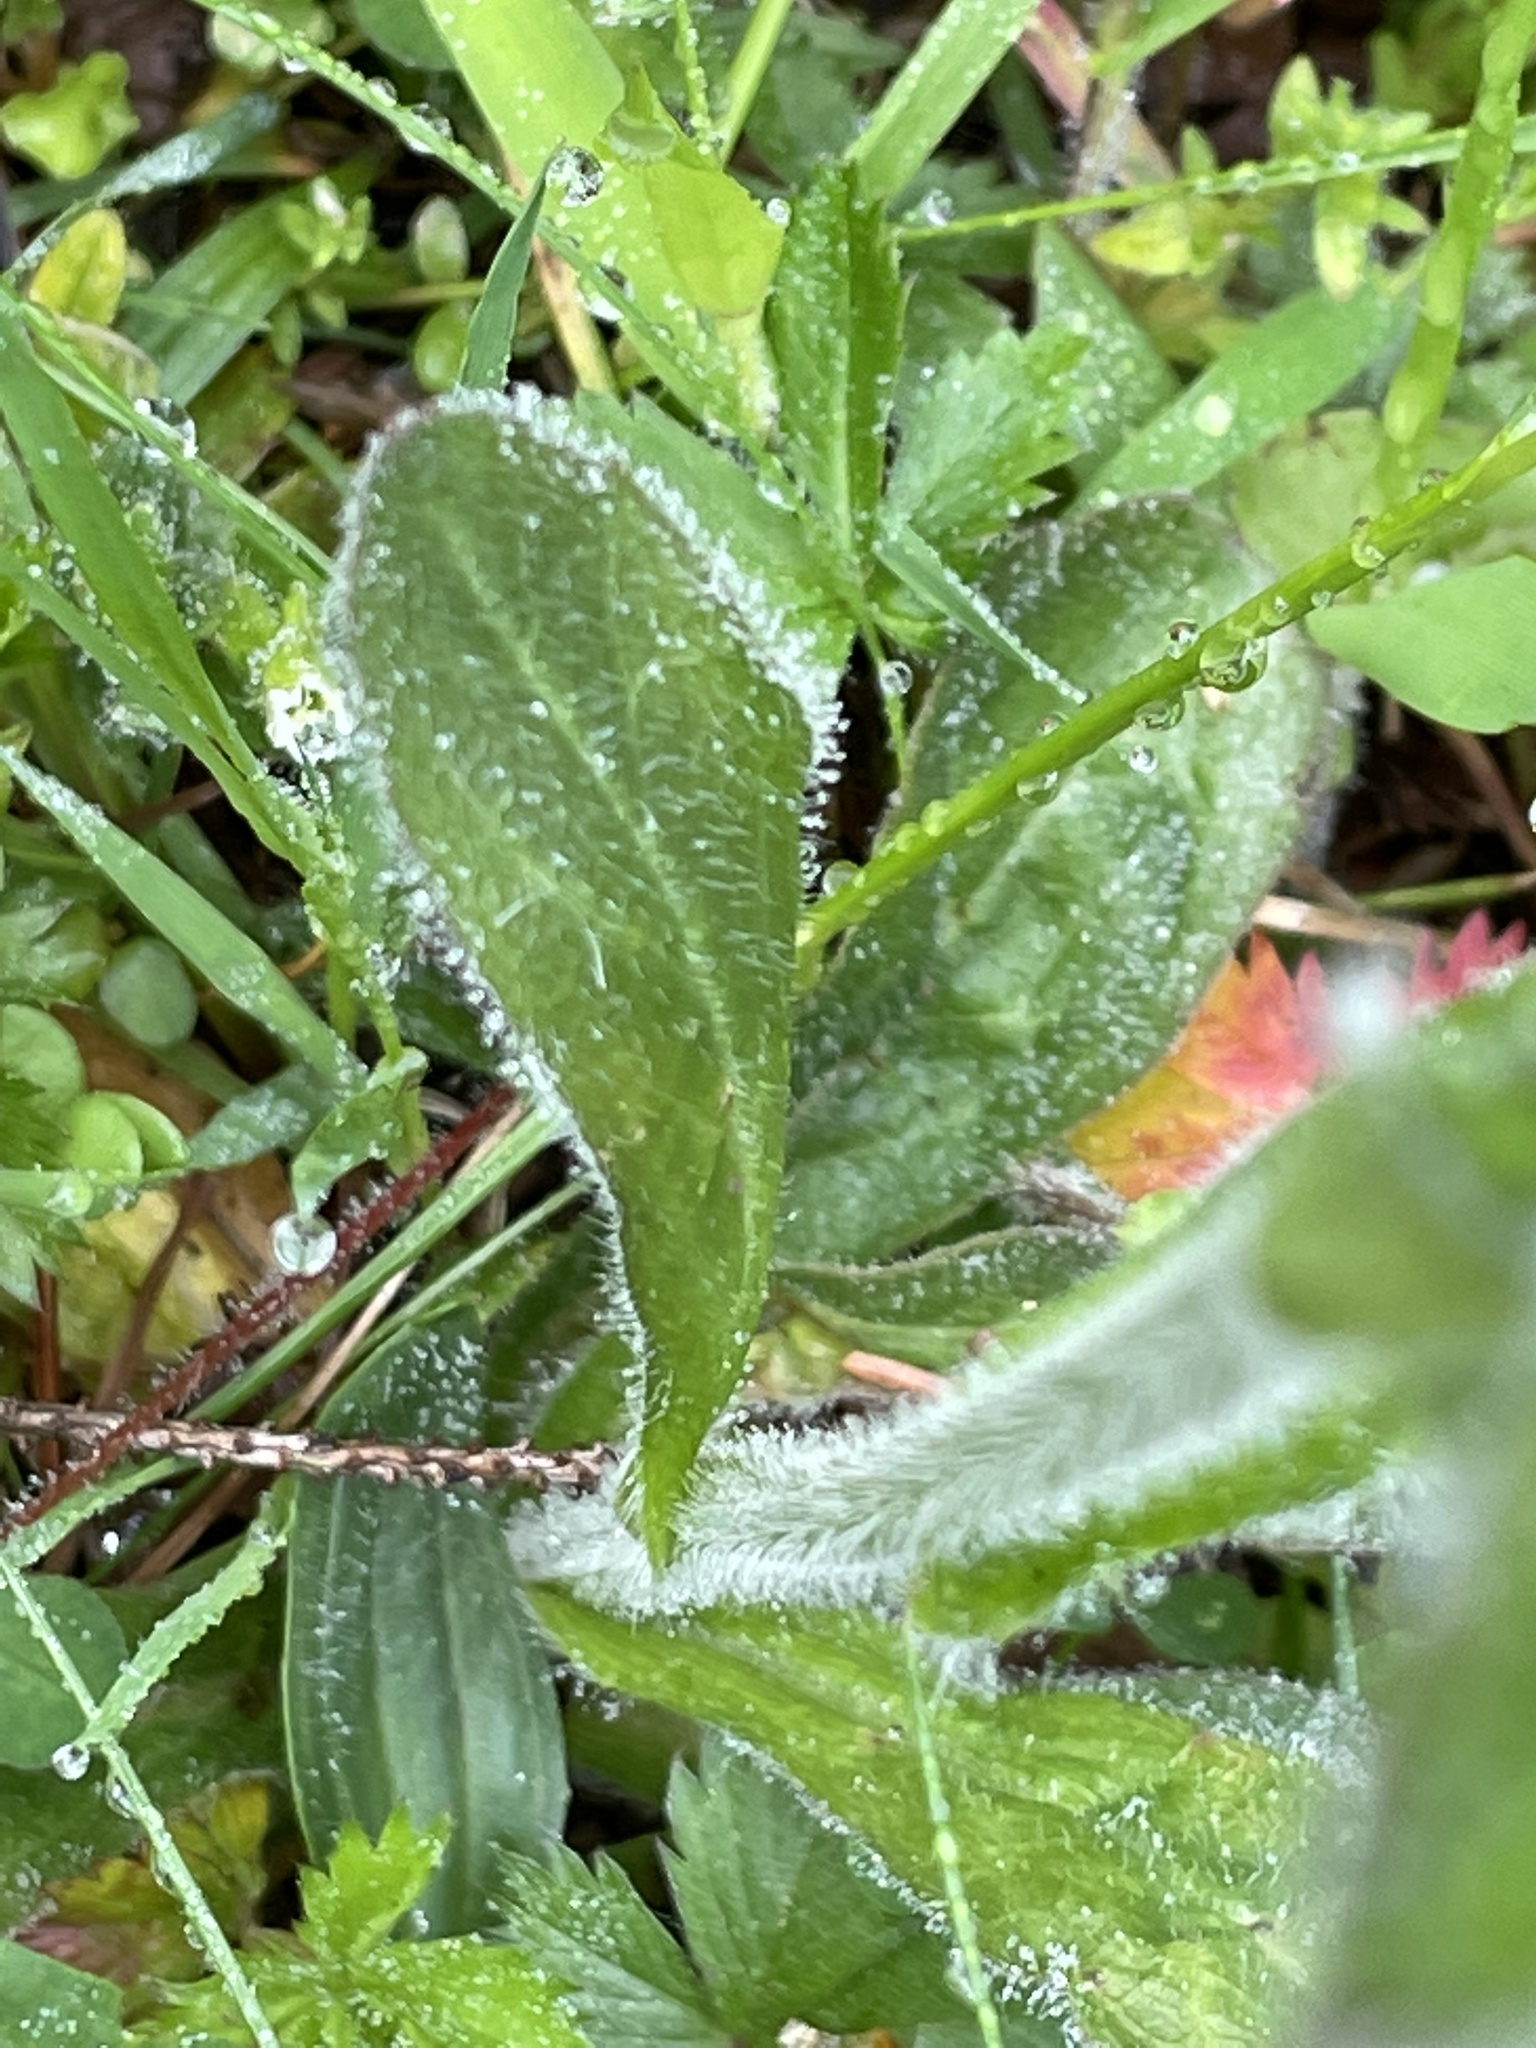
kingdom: Plantae
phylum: Tracheophyta
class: Magnoliopsida
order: Asterales
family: Asteraceae
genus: Erigeron
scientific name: Erigeron pulchellus
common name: Hairy fleabane
